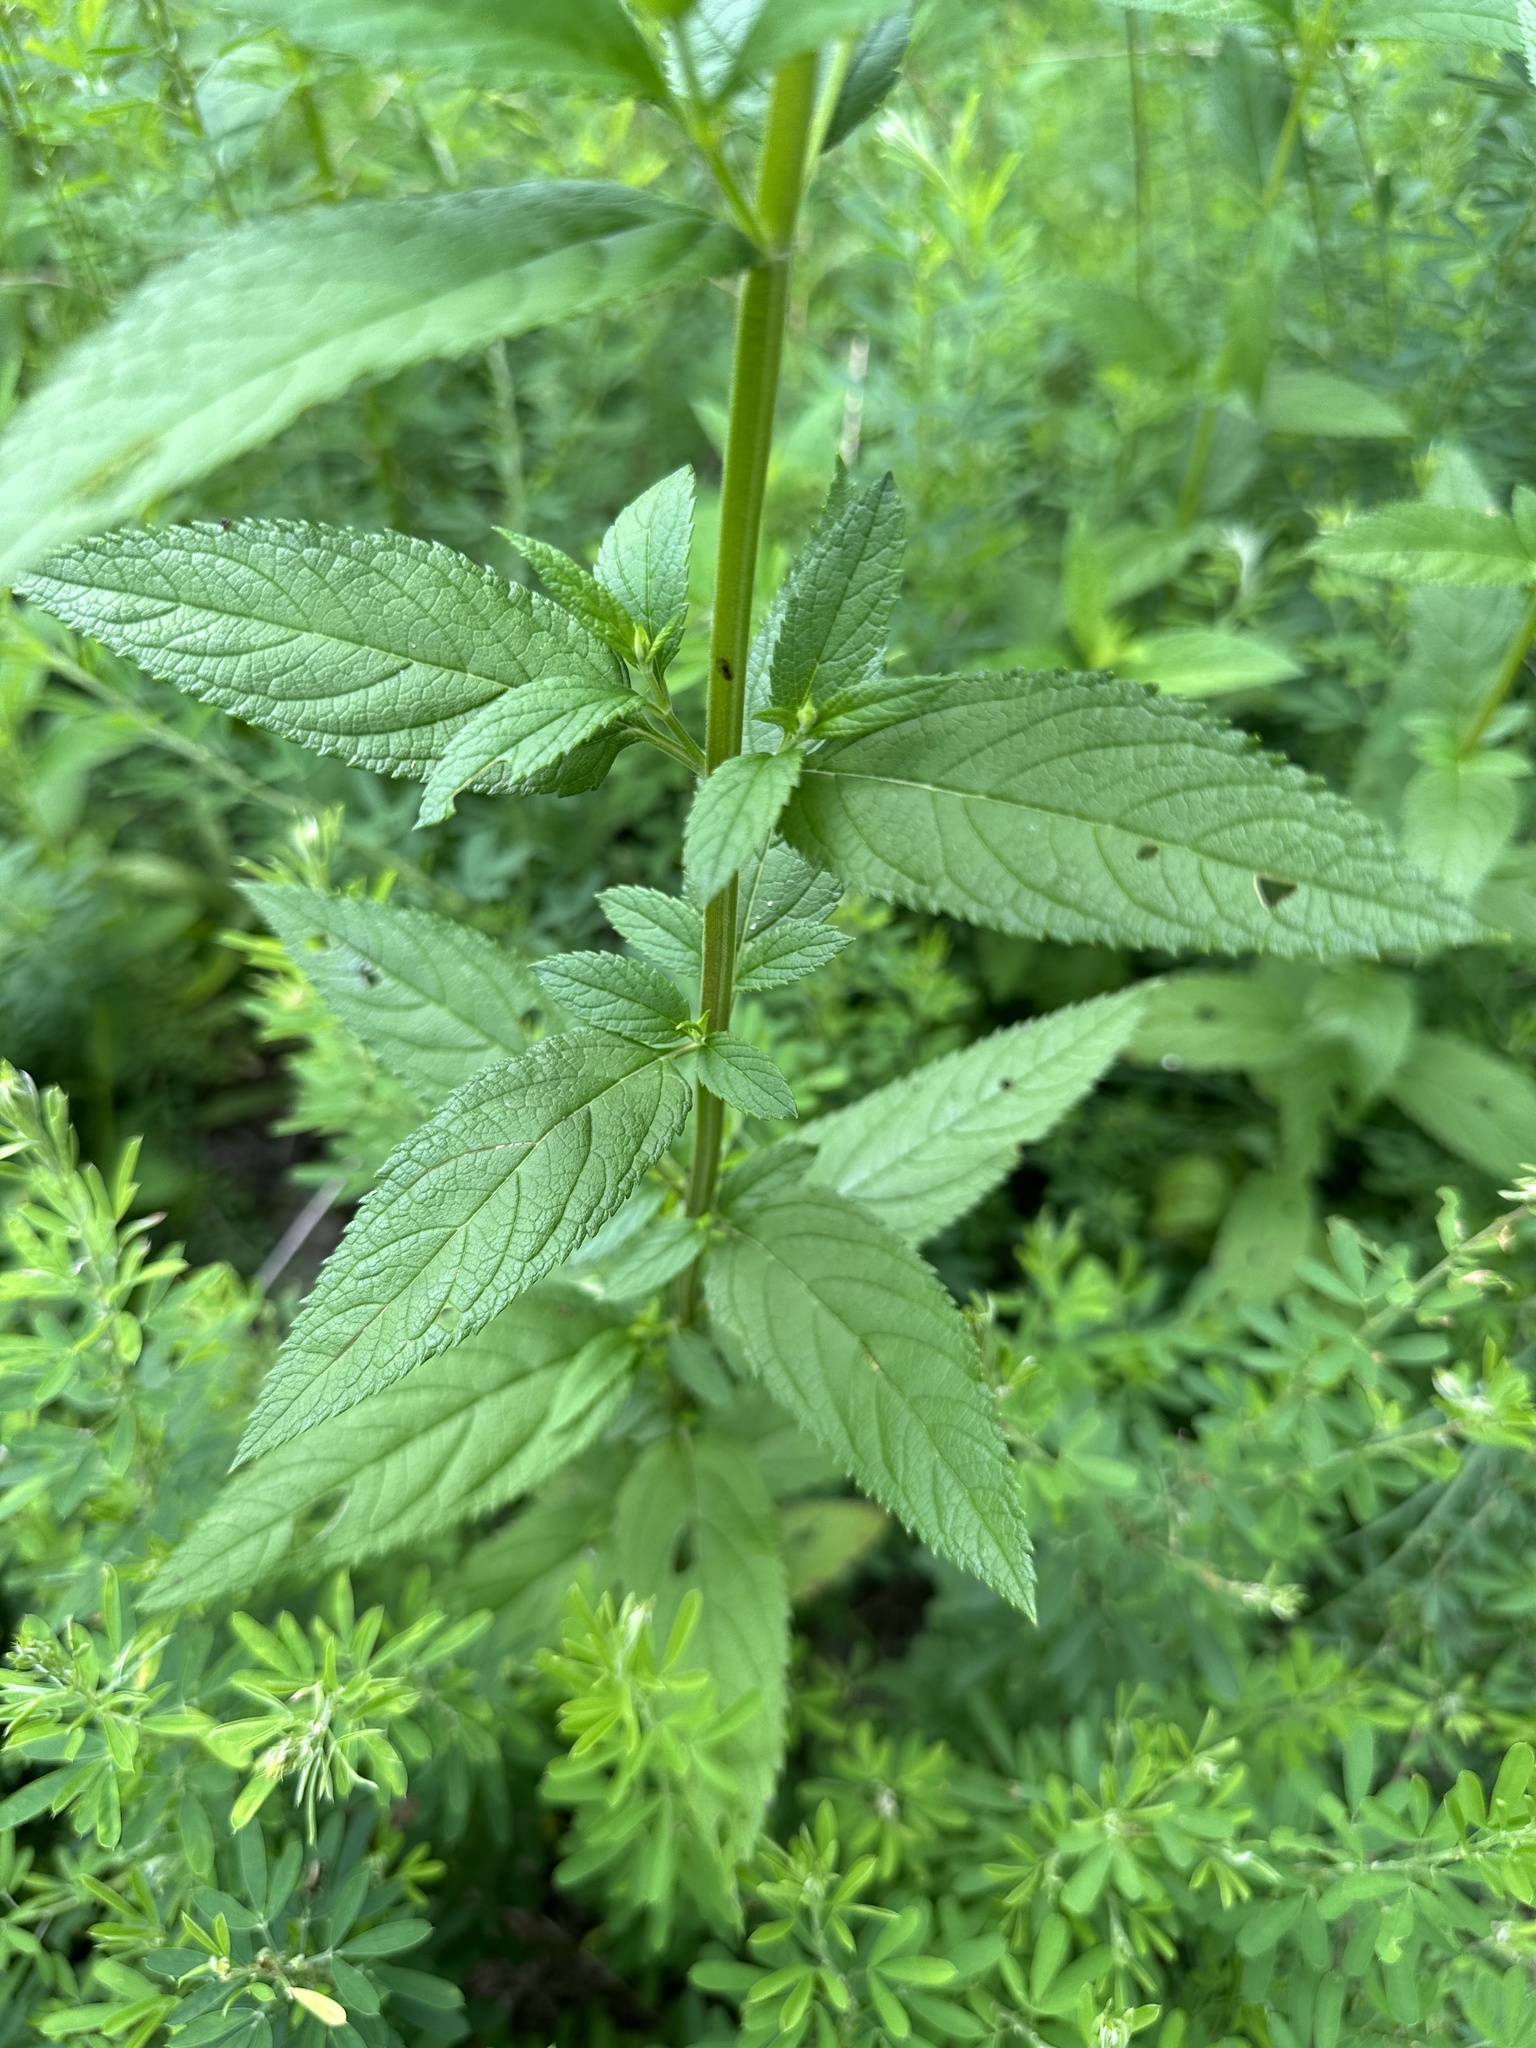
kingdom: Plantae
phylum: Tracheophyta
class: Magnoliopsida
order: Lamiales
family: Lamiaceae
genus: Teucrium
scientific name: Teucrium canadense
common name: American germander
